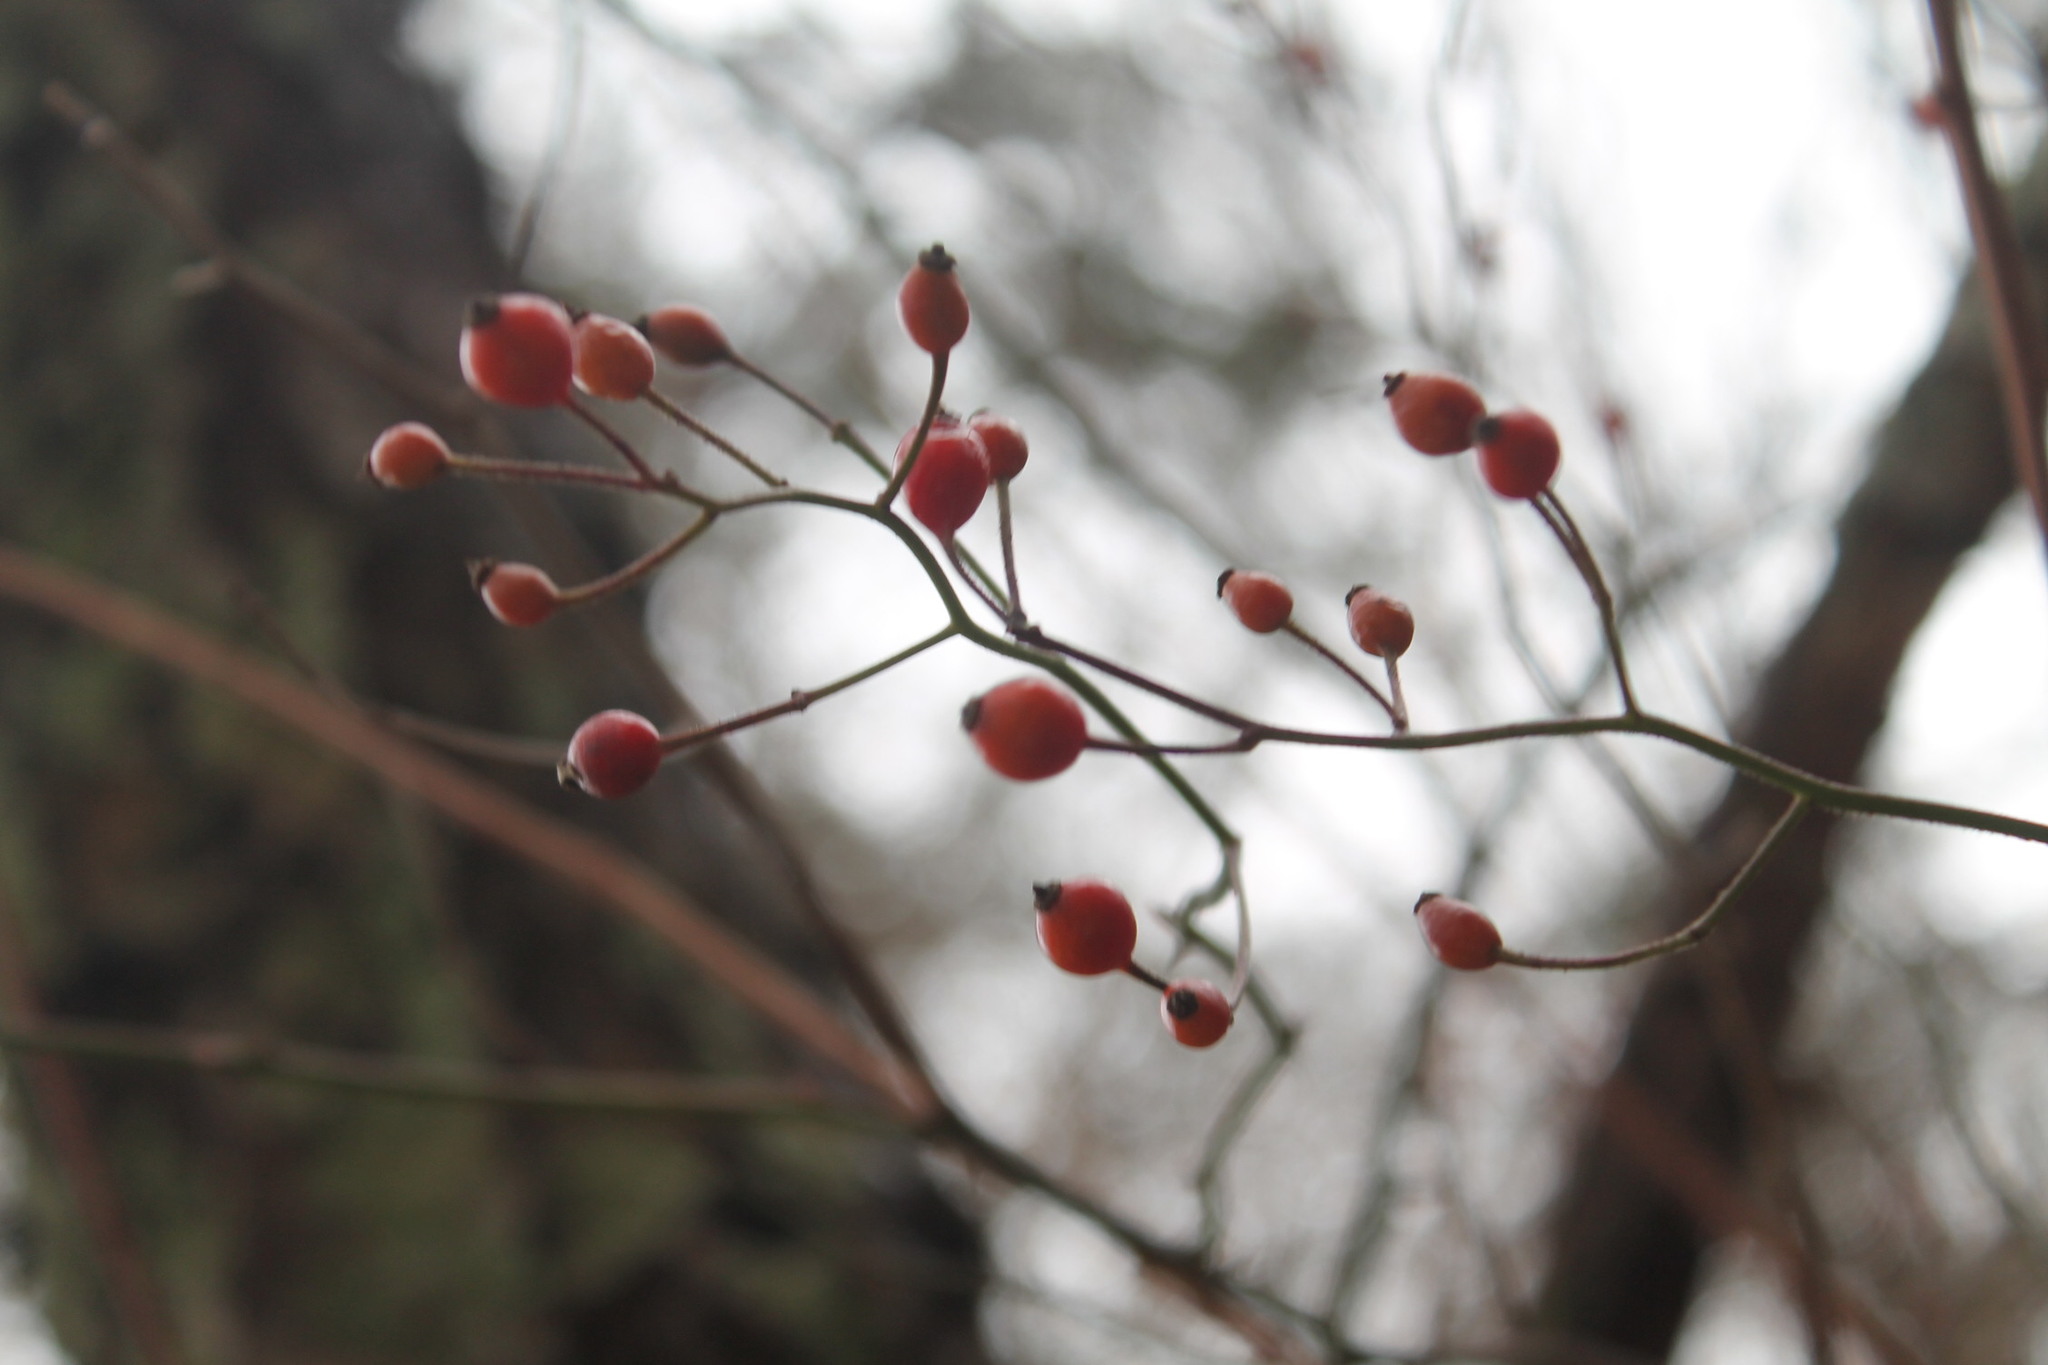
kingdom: Plantae
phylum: Tracheophyta
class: Magnoliopsida
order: Rosales
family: Rosaceae
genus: Rosa
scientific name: Rosa multiflora
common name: Multiflora rose
